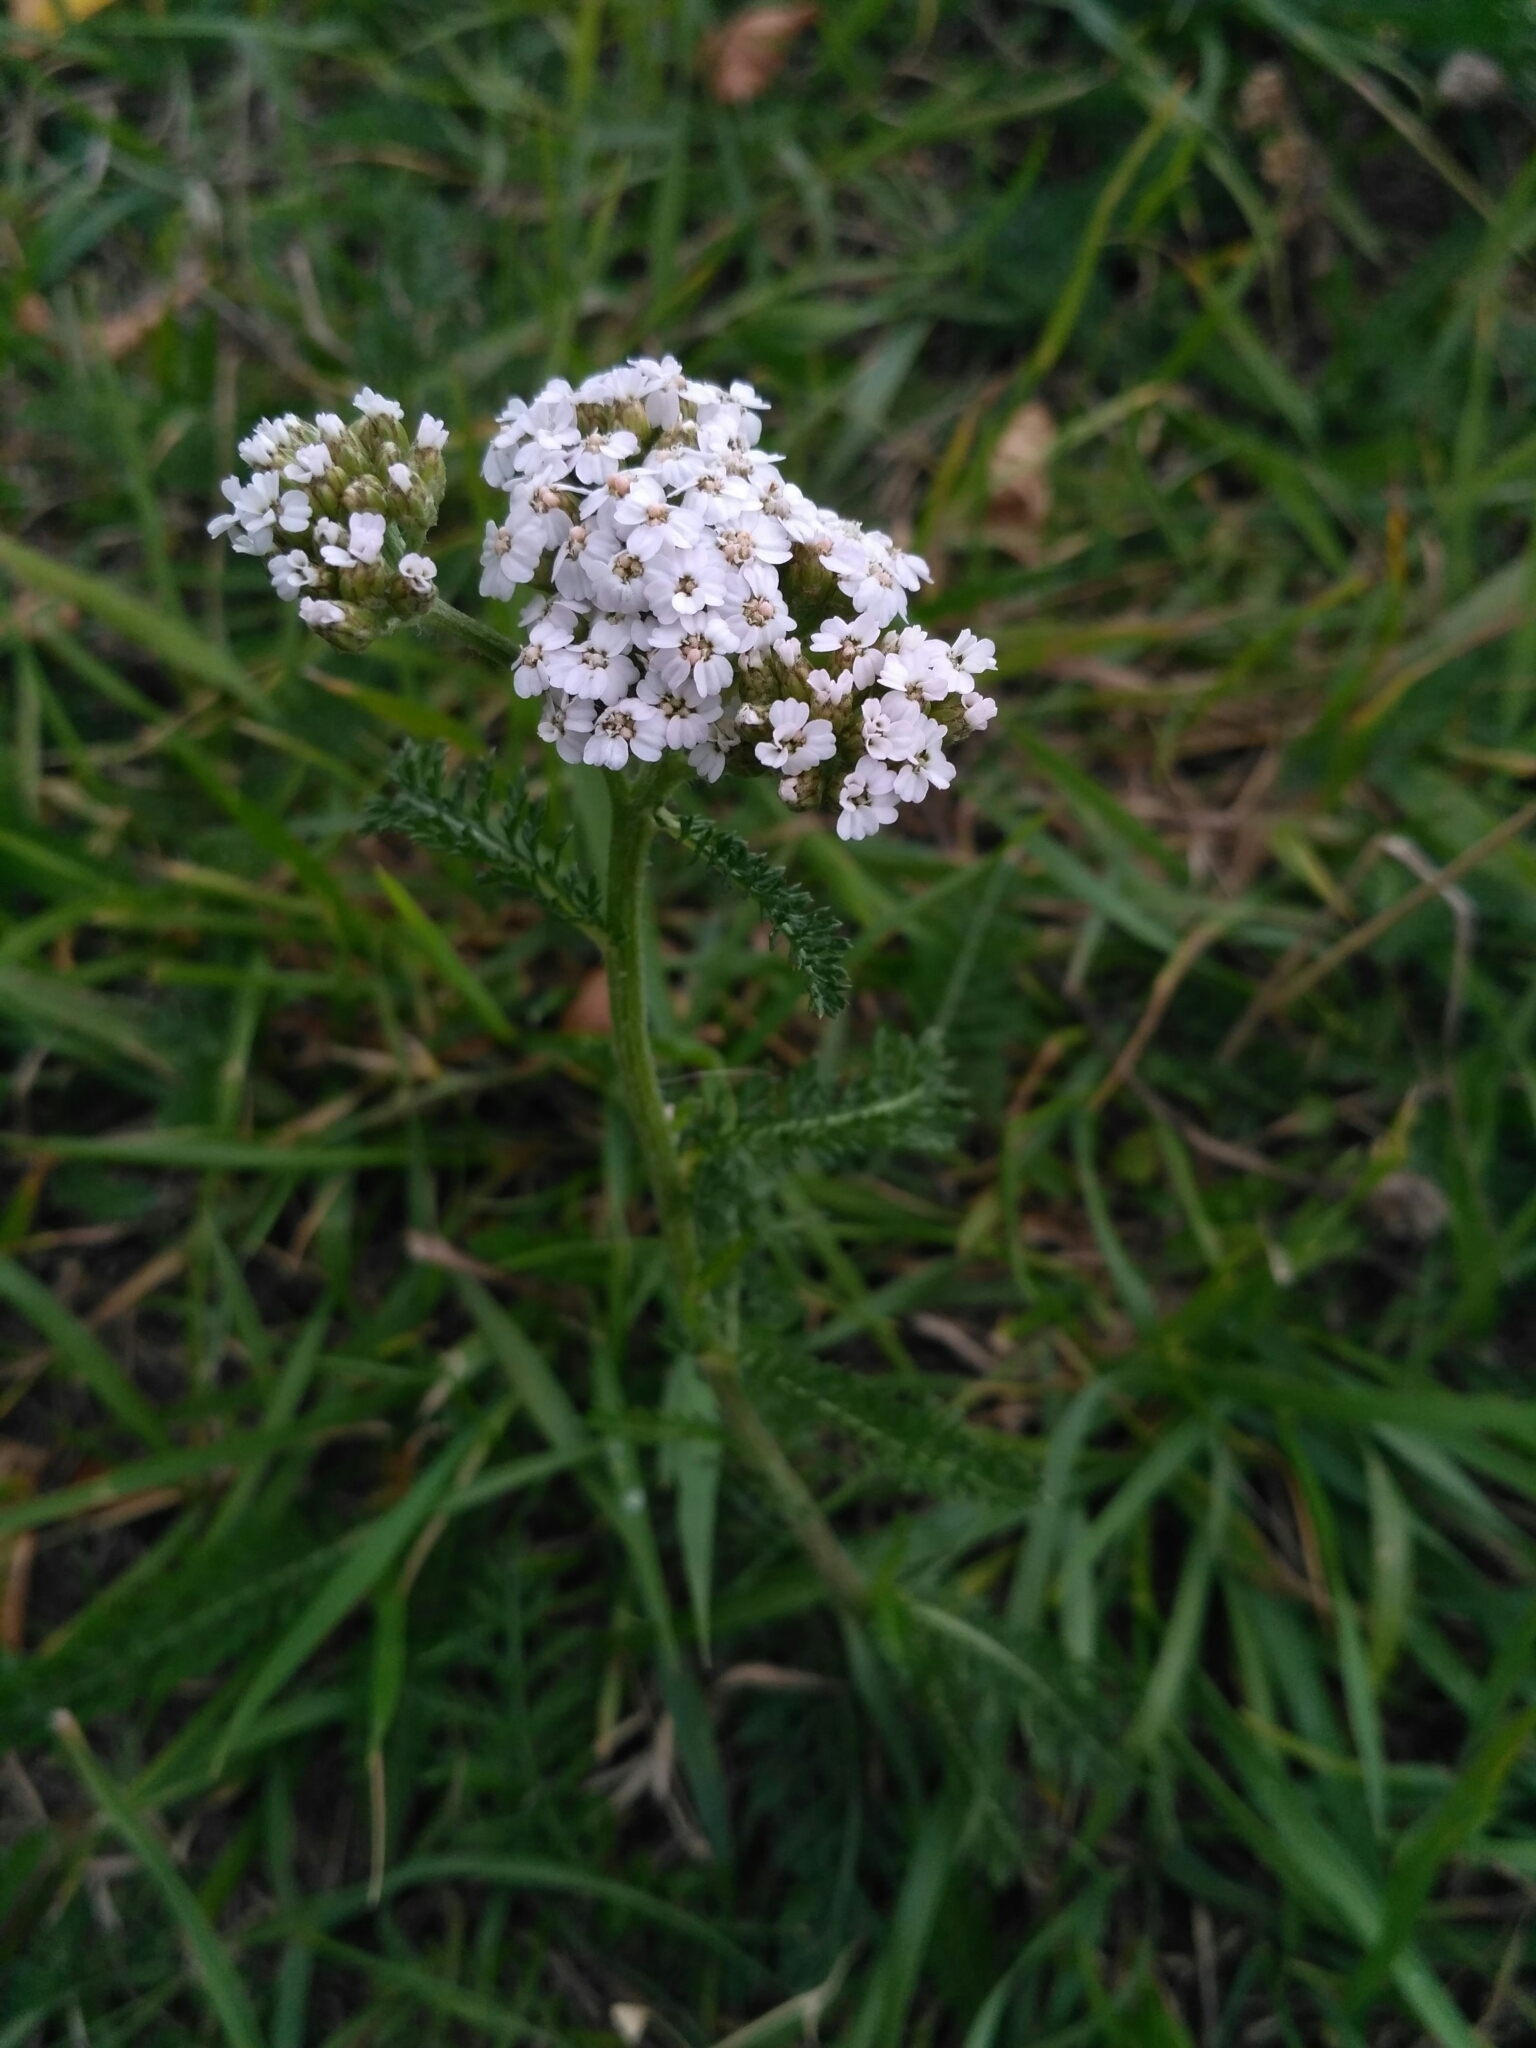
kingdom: Plantae
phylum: Tracheophyta
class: Magnoliopsida
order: Asterales
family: Asteraceae
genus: Achillea
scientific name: Achillea millefolium
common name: Yarrow
